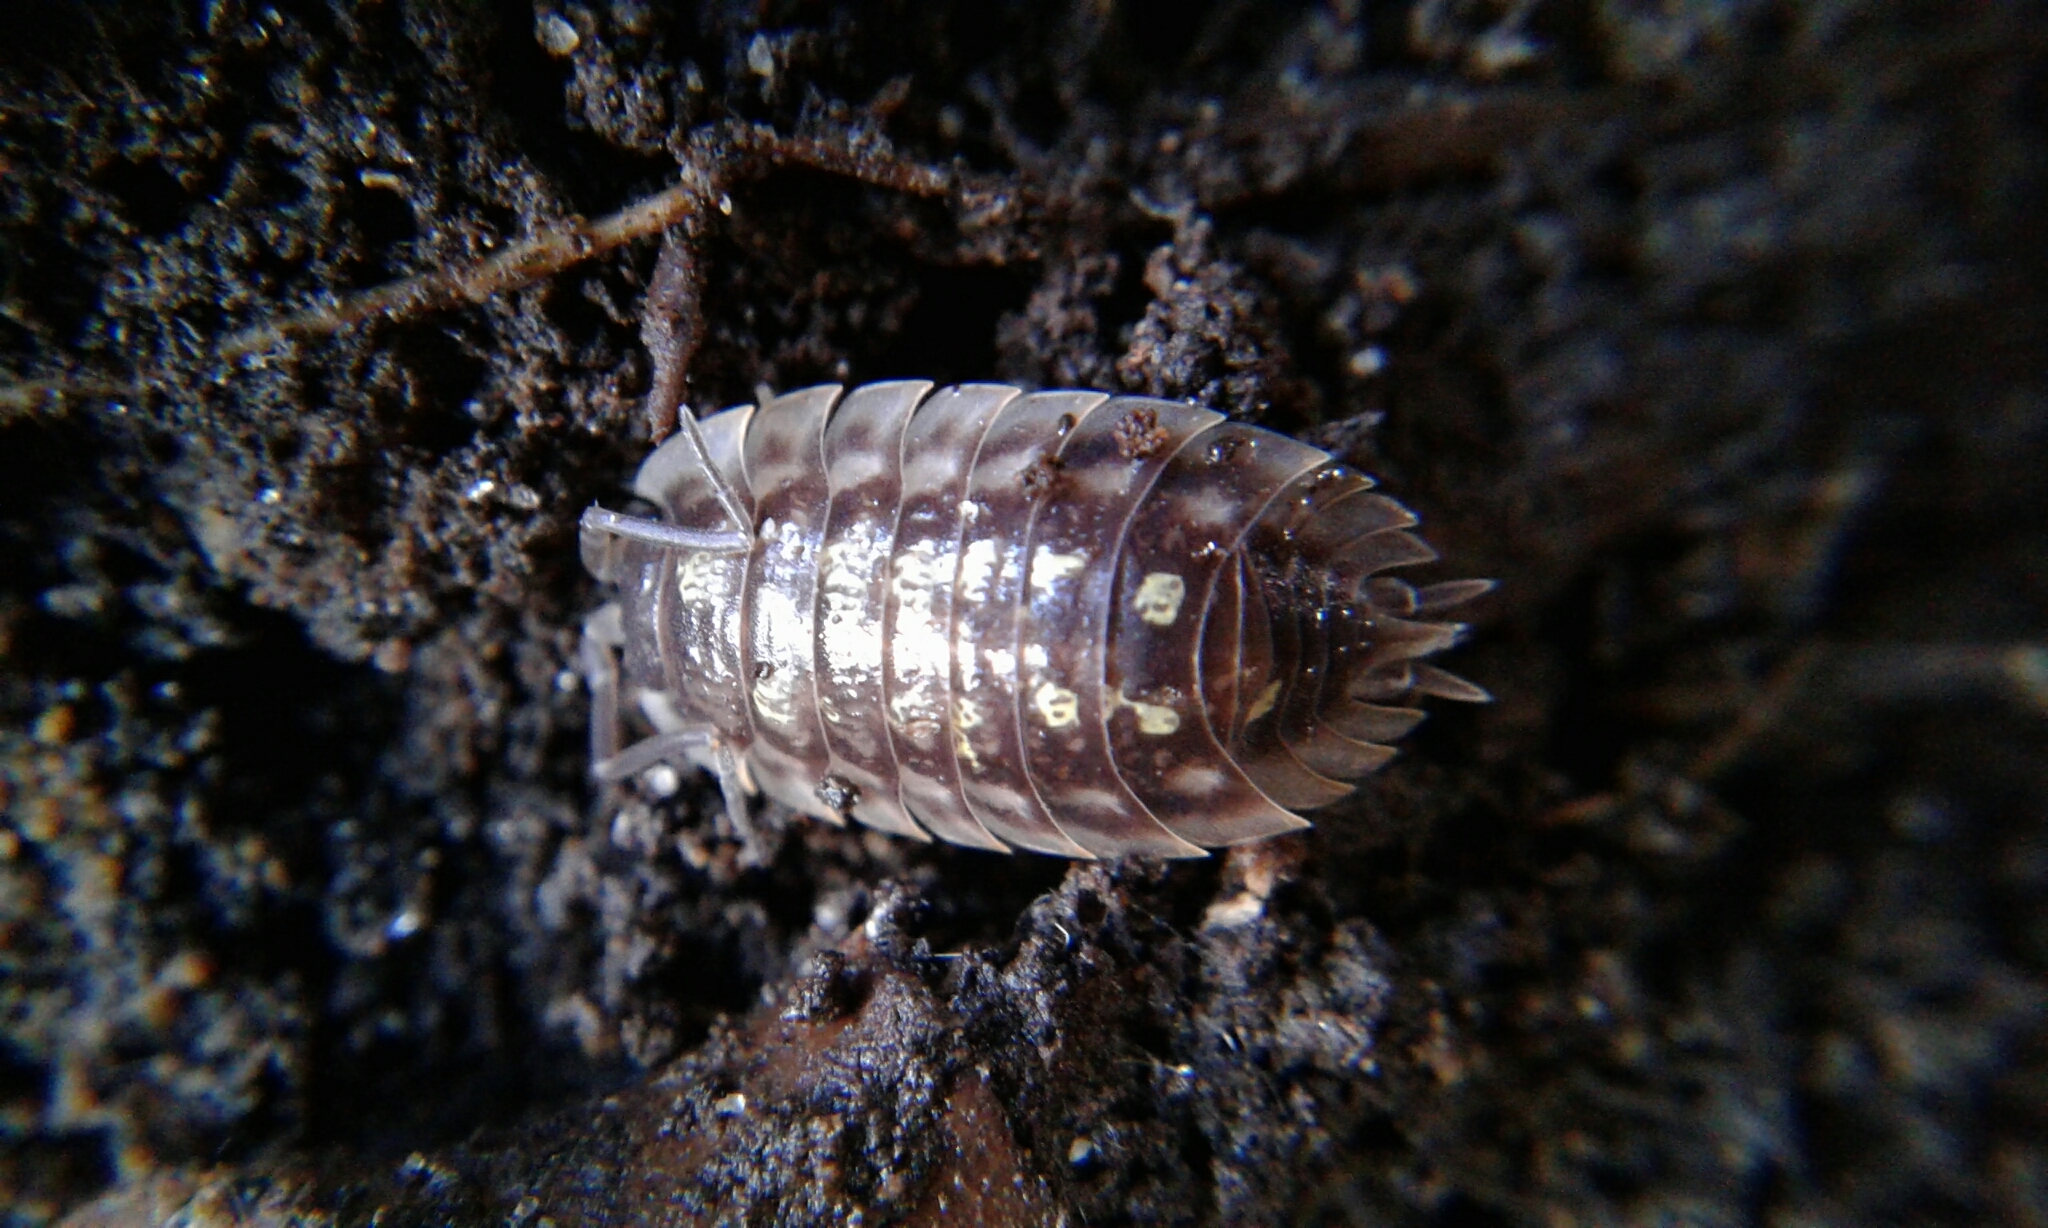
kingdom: Animalia
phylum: Arthropoda
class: Malacostraca
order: Isopoda
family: Oniscidae
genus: Oniscus
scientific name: Oniscus asellus
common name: Common shiny woodlouse
